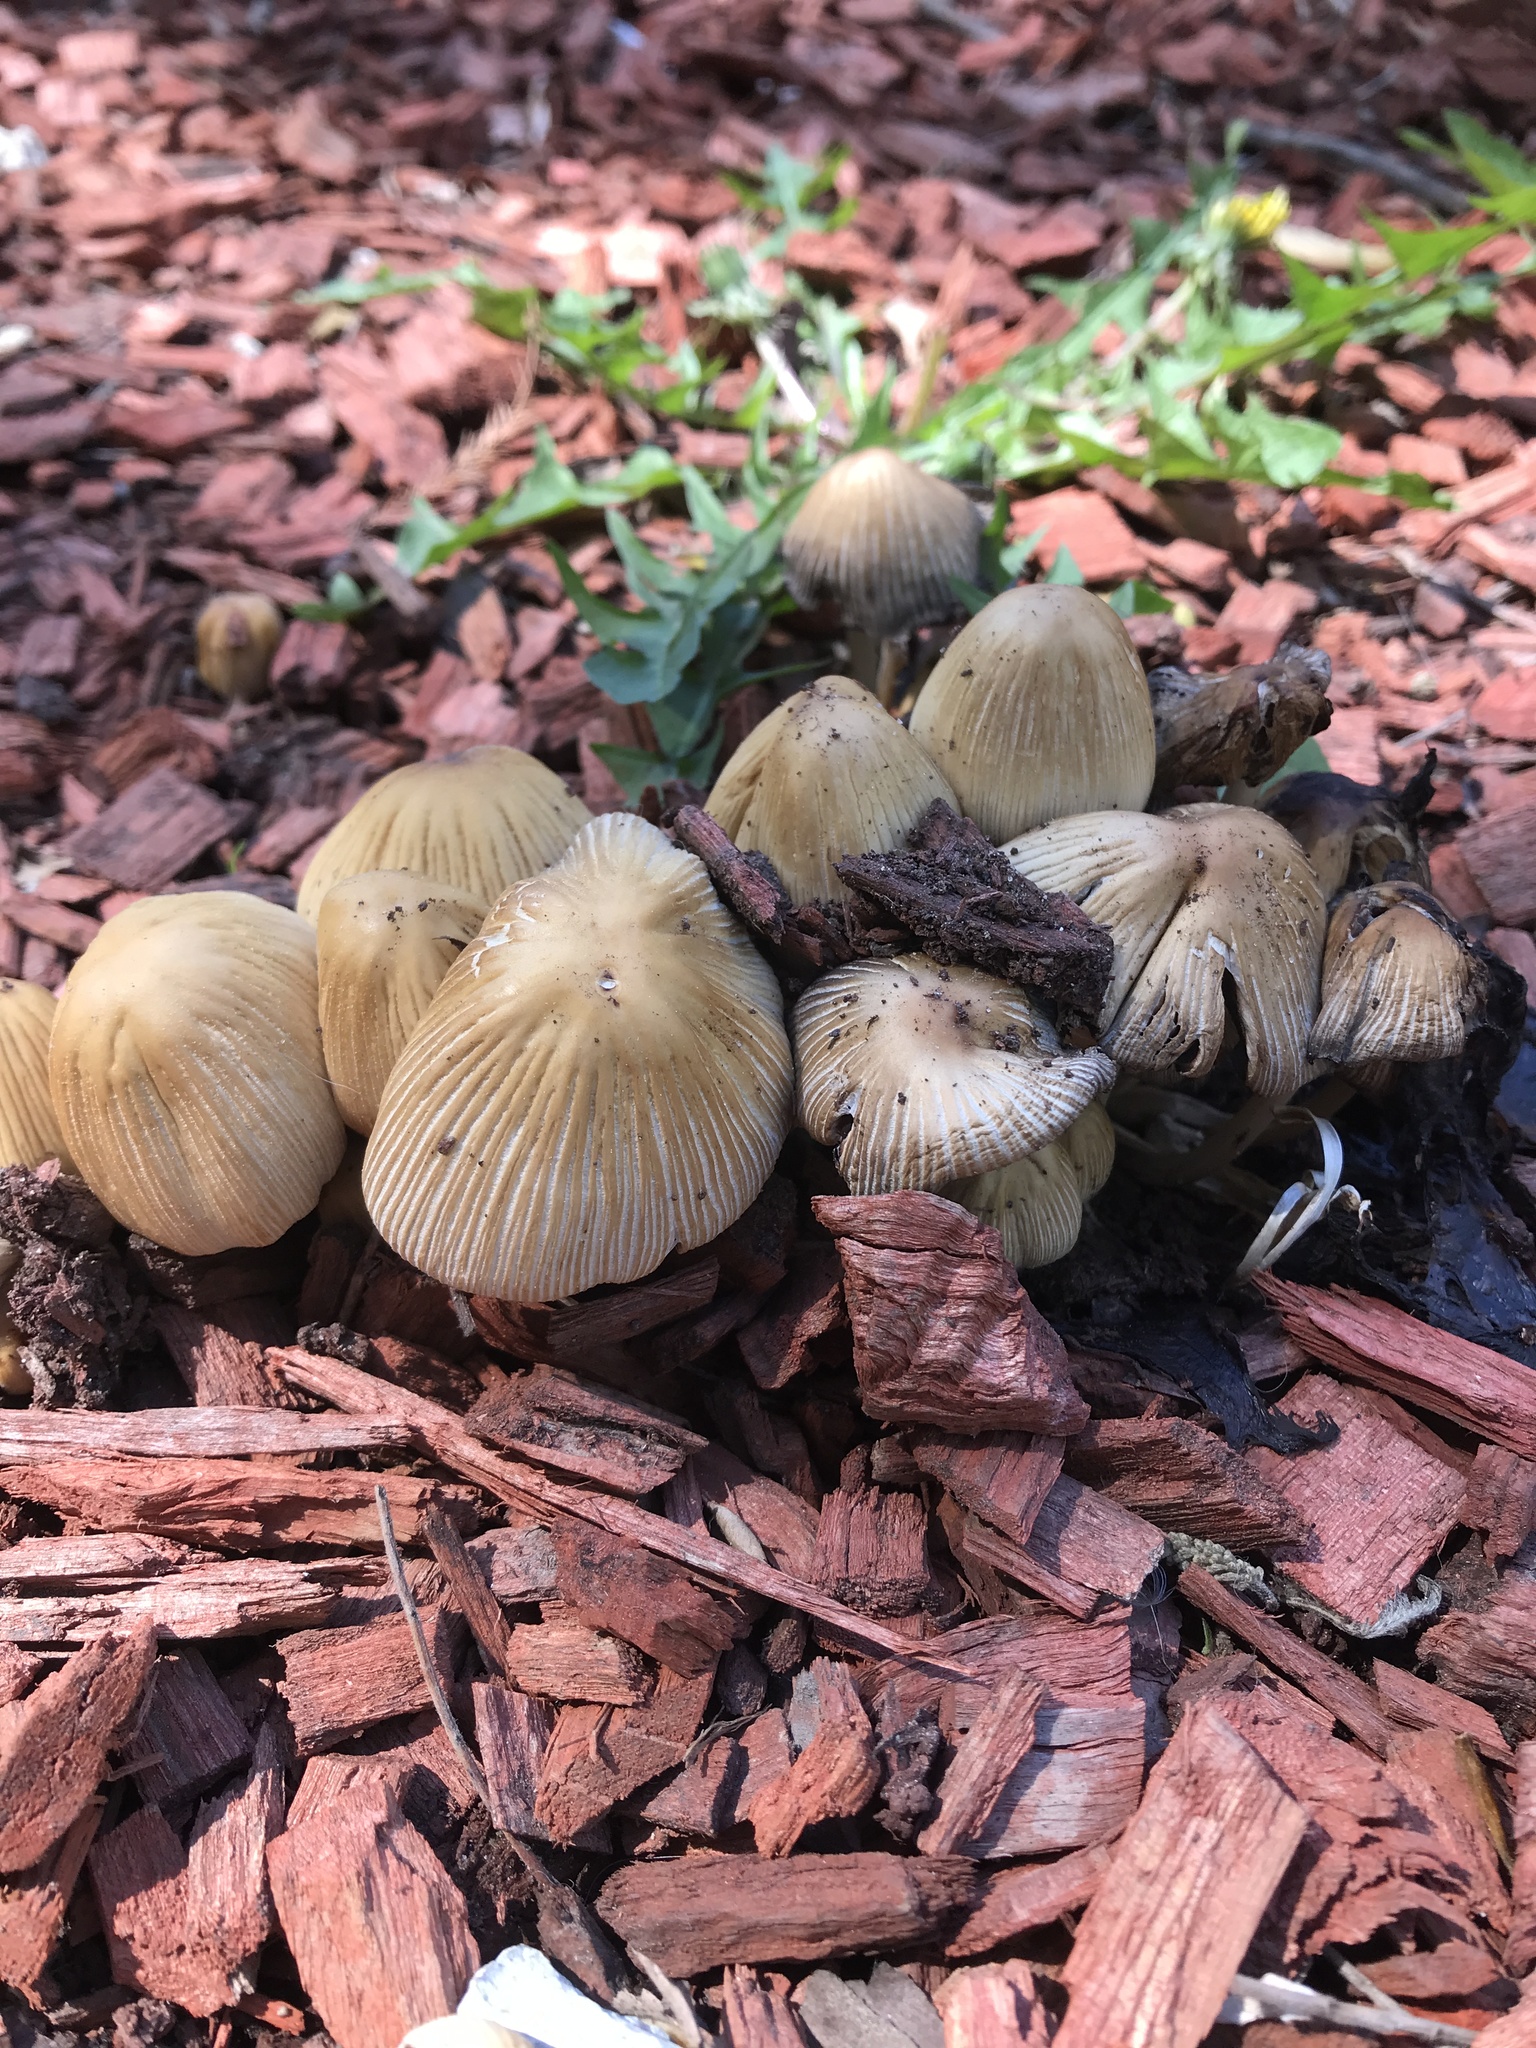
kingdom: Fungi
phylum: Basidiomycota
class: Agaricomycetes
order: Agaricales
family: Psathyrellaceae
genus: Coprinellus
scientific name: Coprinellus micaceus
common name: Glistening ink-cap
